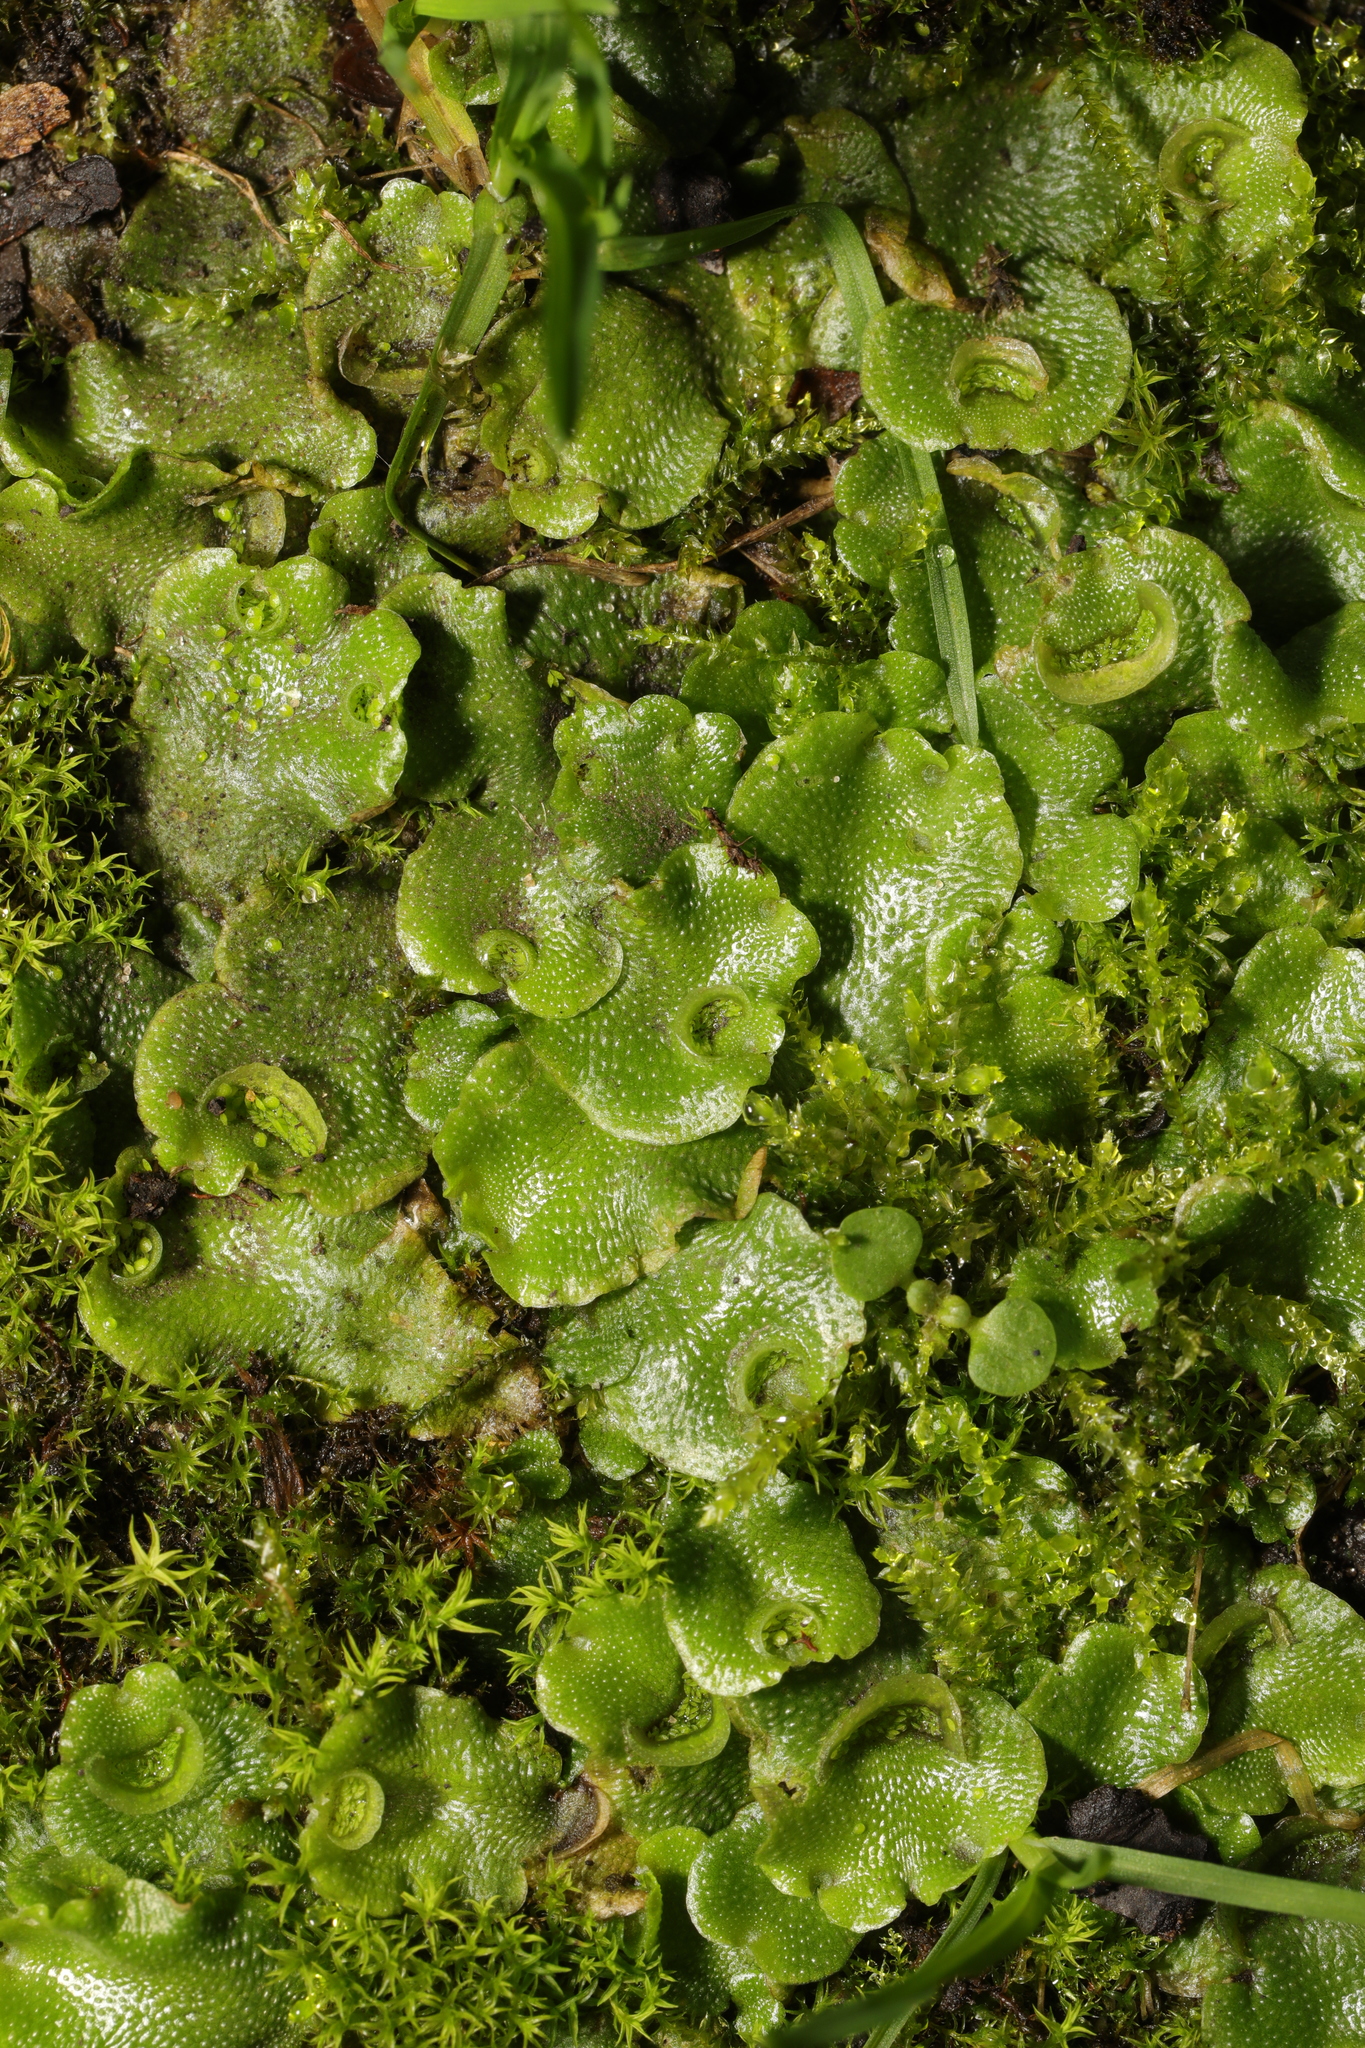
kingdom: Plantae
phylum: Marchantiophyta
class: Marchantiopsida
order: Lunulariales
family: Lunulariaceae
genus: Lunularia
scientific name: Lunularia cruciata
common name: Crescent-cup liverwort
